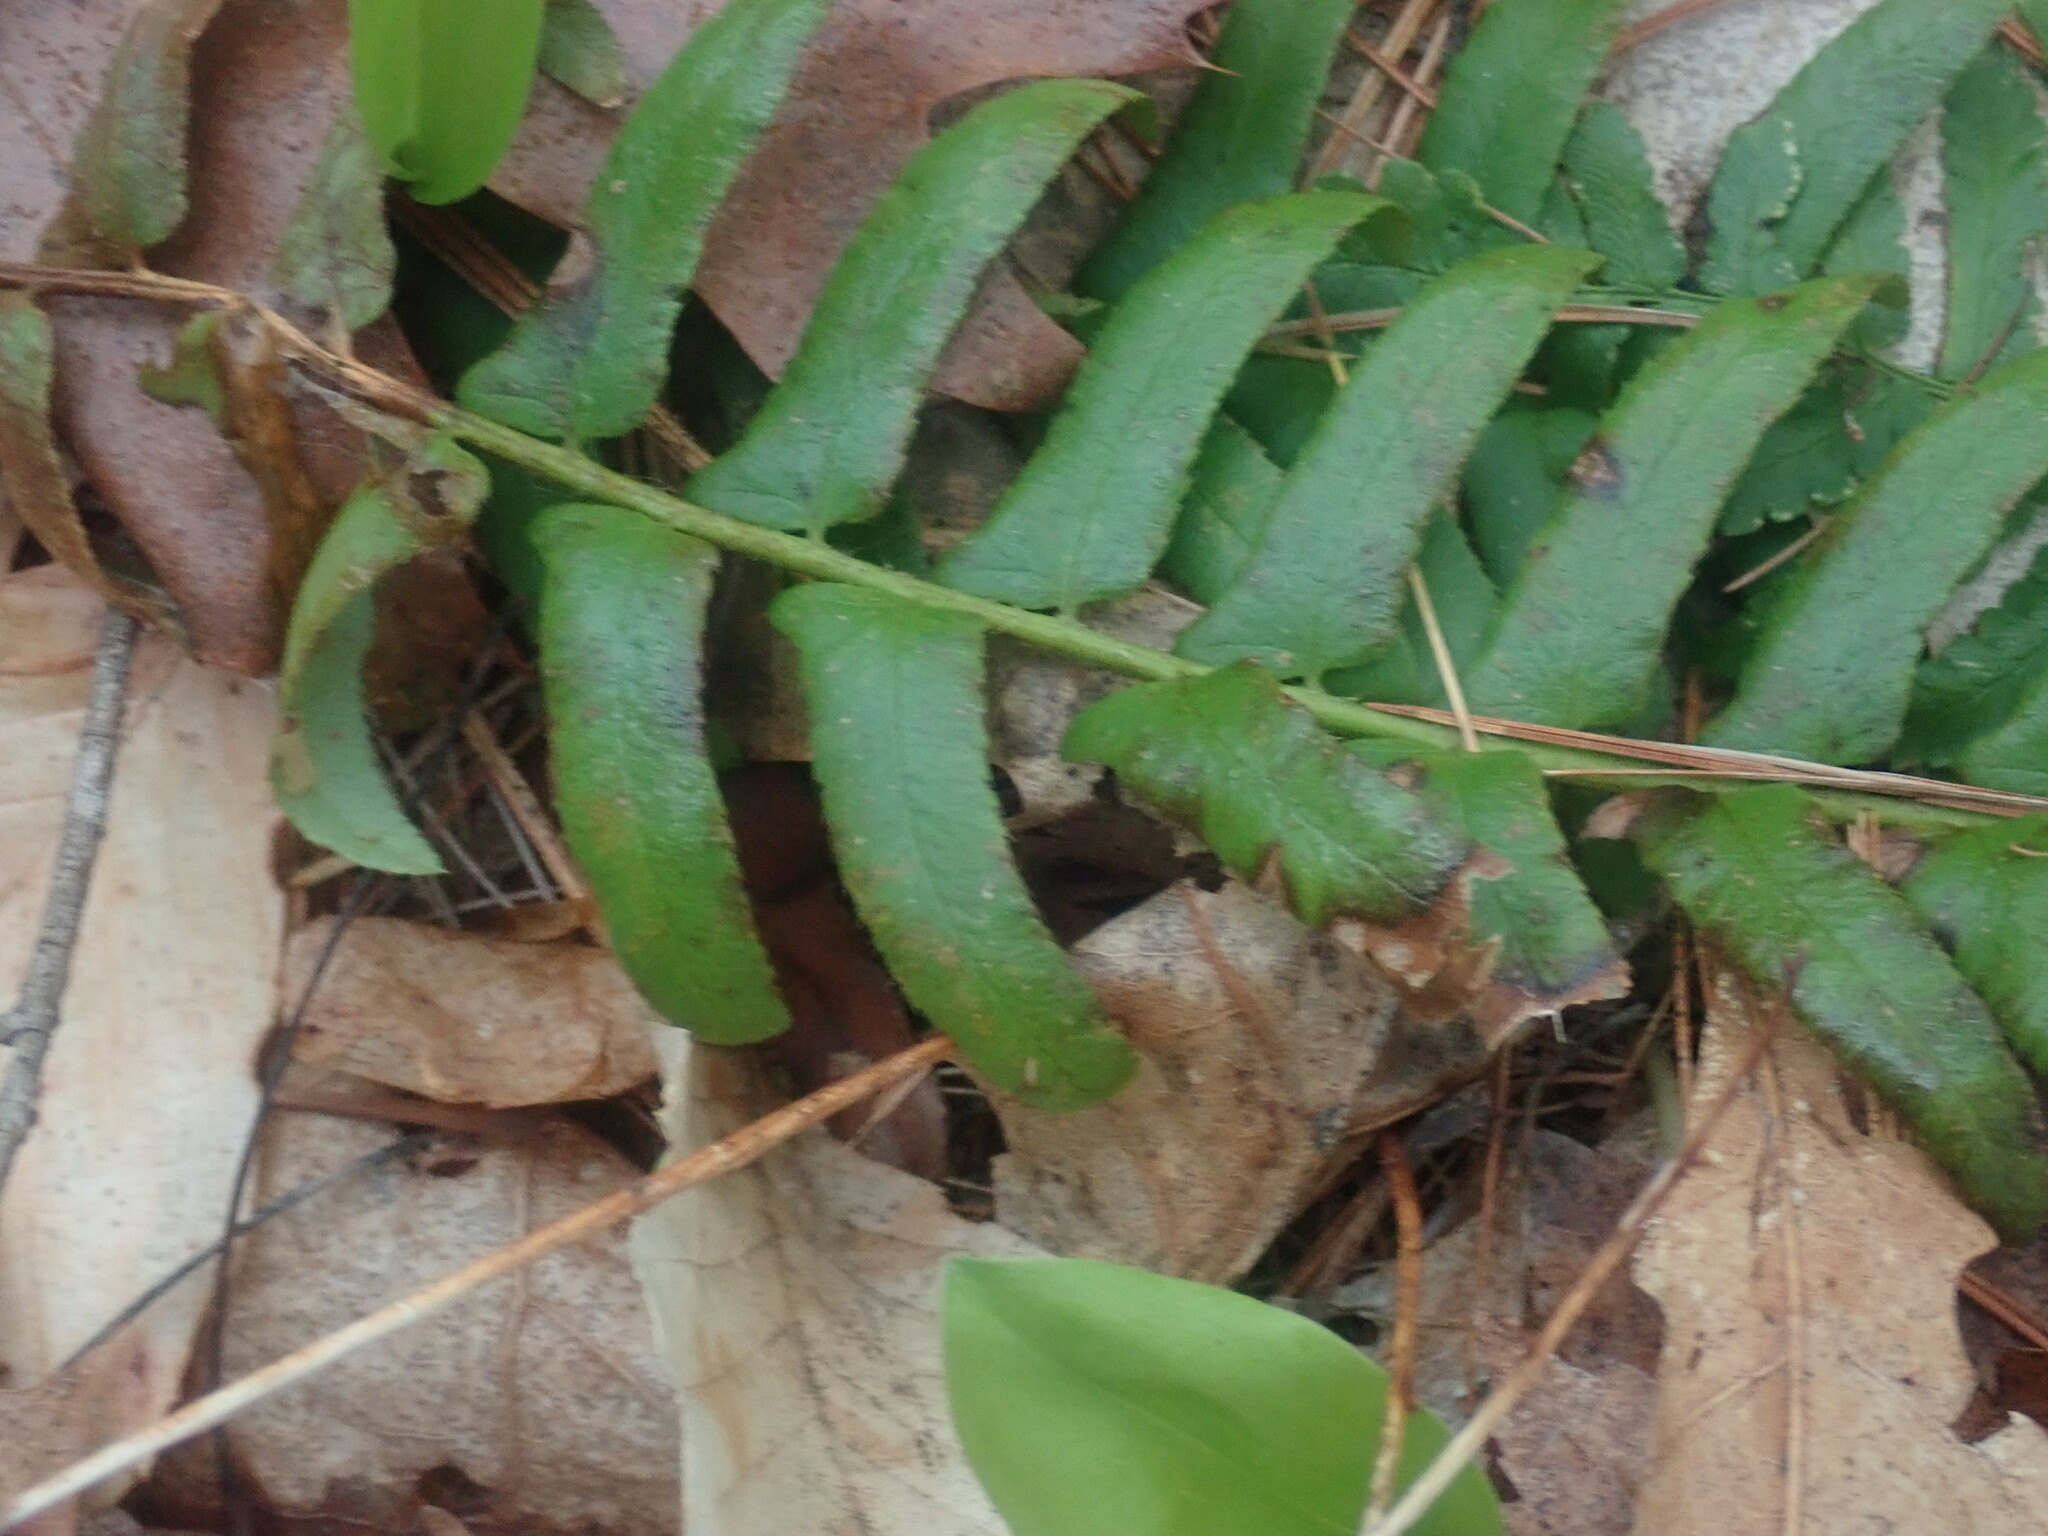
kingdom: Plantae
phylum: Tracheophyta
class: Polypodiopsida
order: Polypodiales
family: Dryopteridaceae
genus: Polystichum
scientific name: Polystichum acrostichoides
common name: Christmas fern
